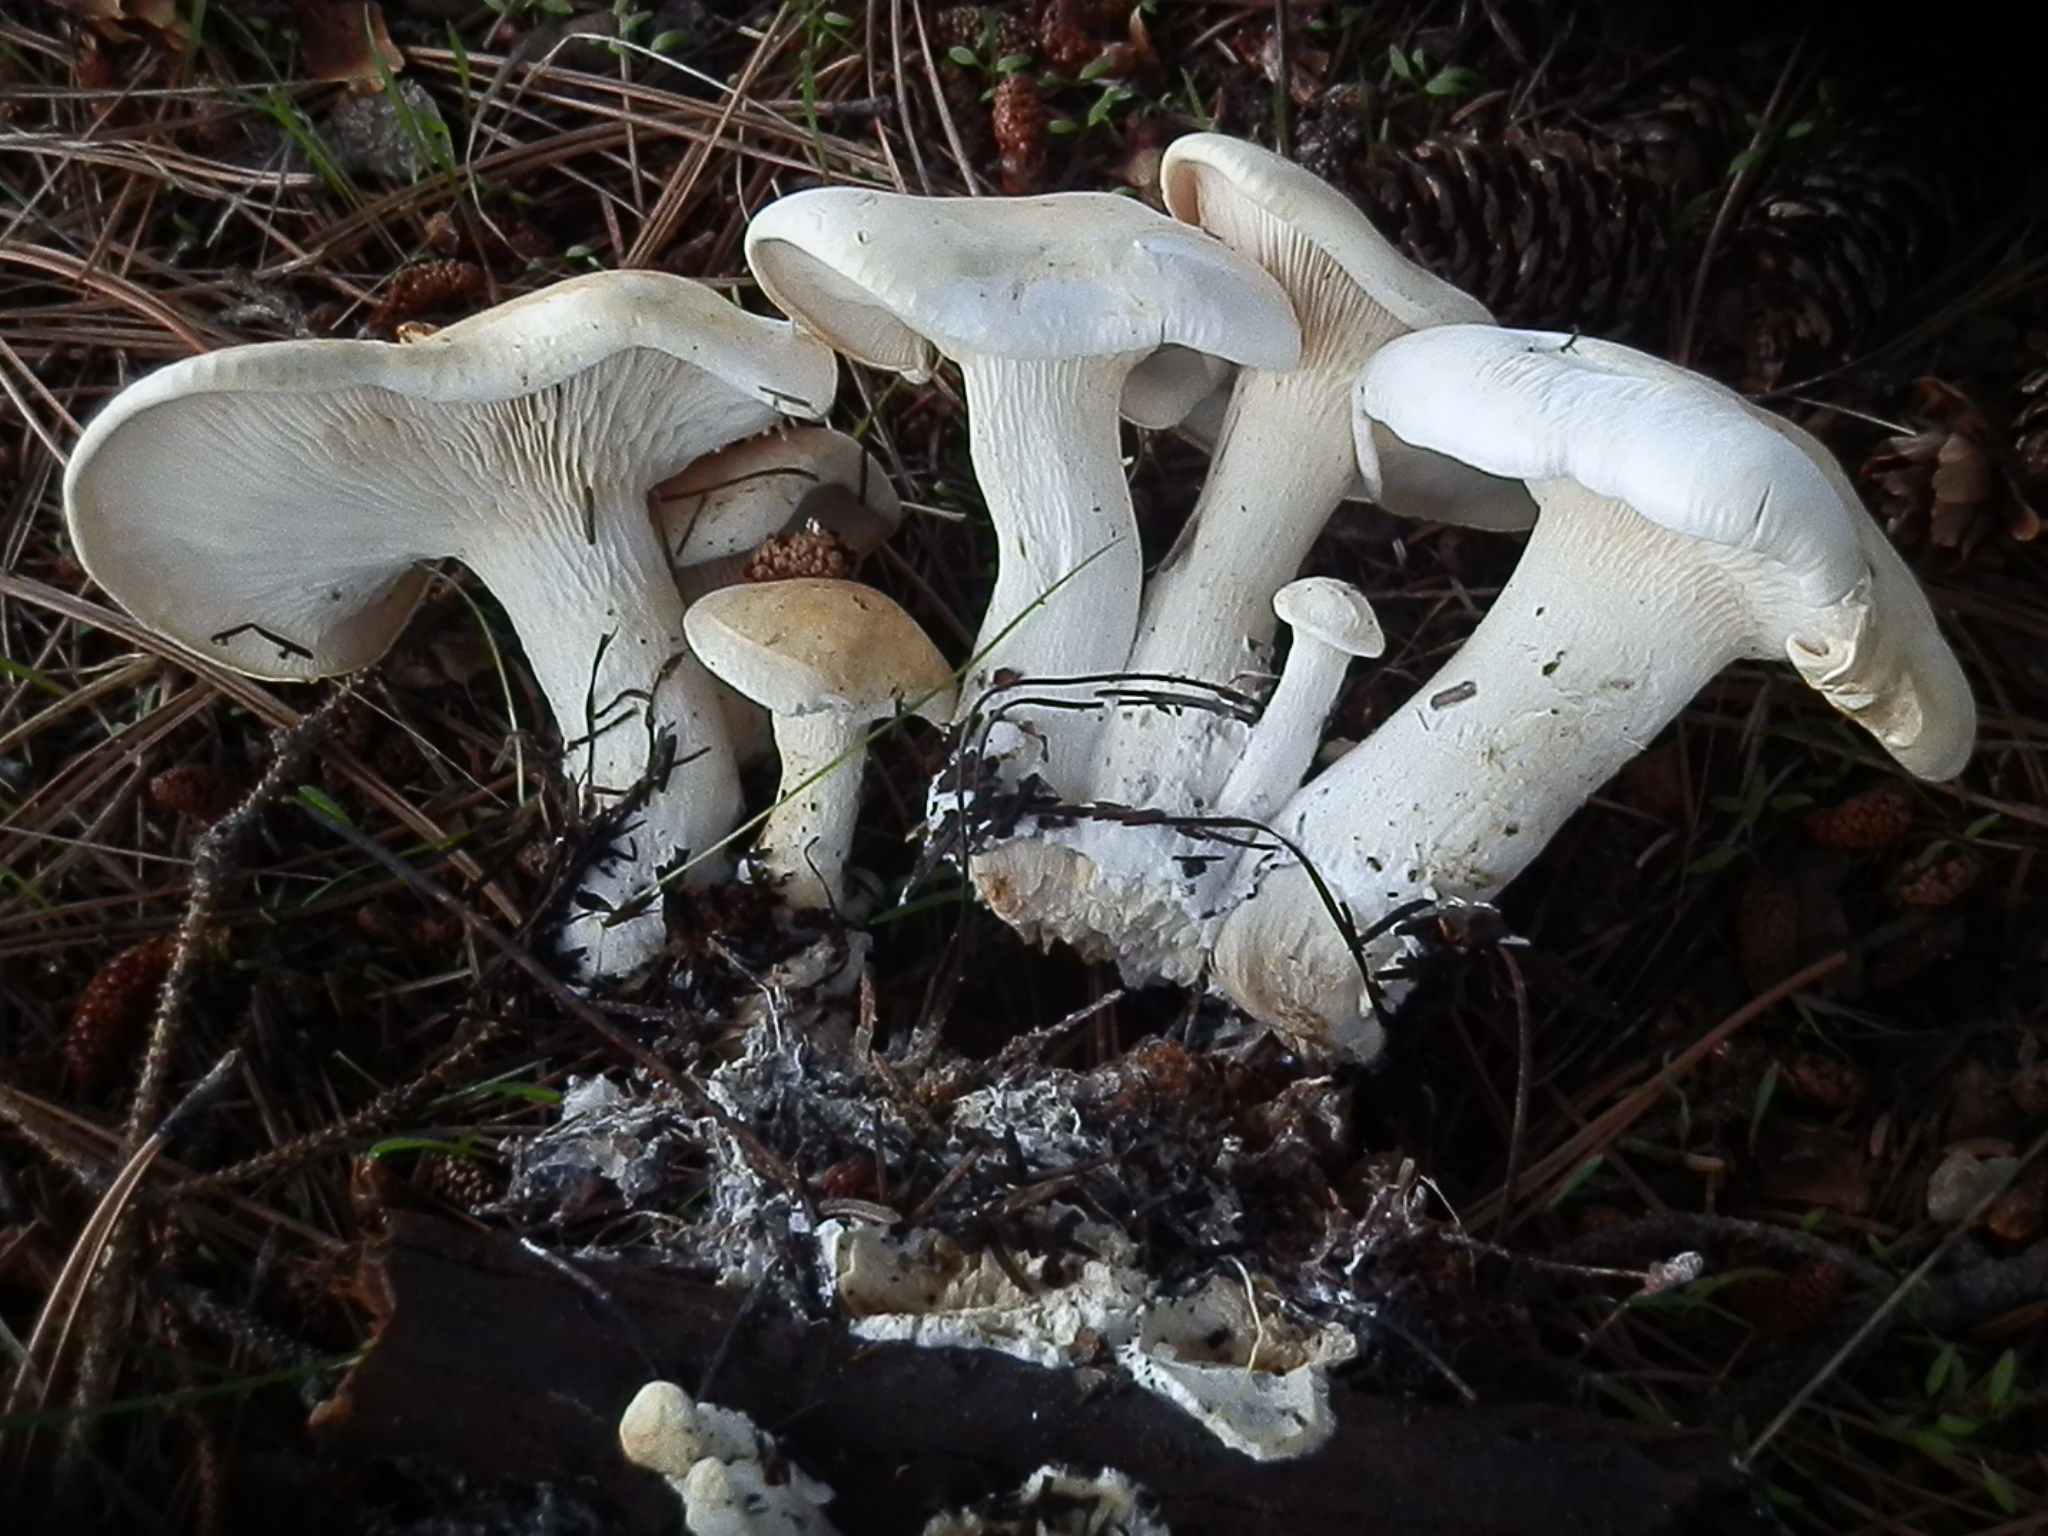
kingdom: Fungi
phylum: Basidiomycota
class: Agaricomycetes
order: Agaricales
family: Tricholomataceae
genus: Leucopaxillus
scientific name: Leucopaxillus paradoxus
